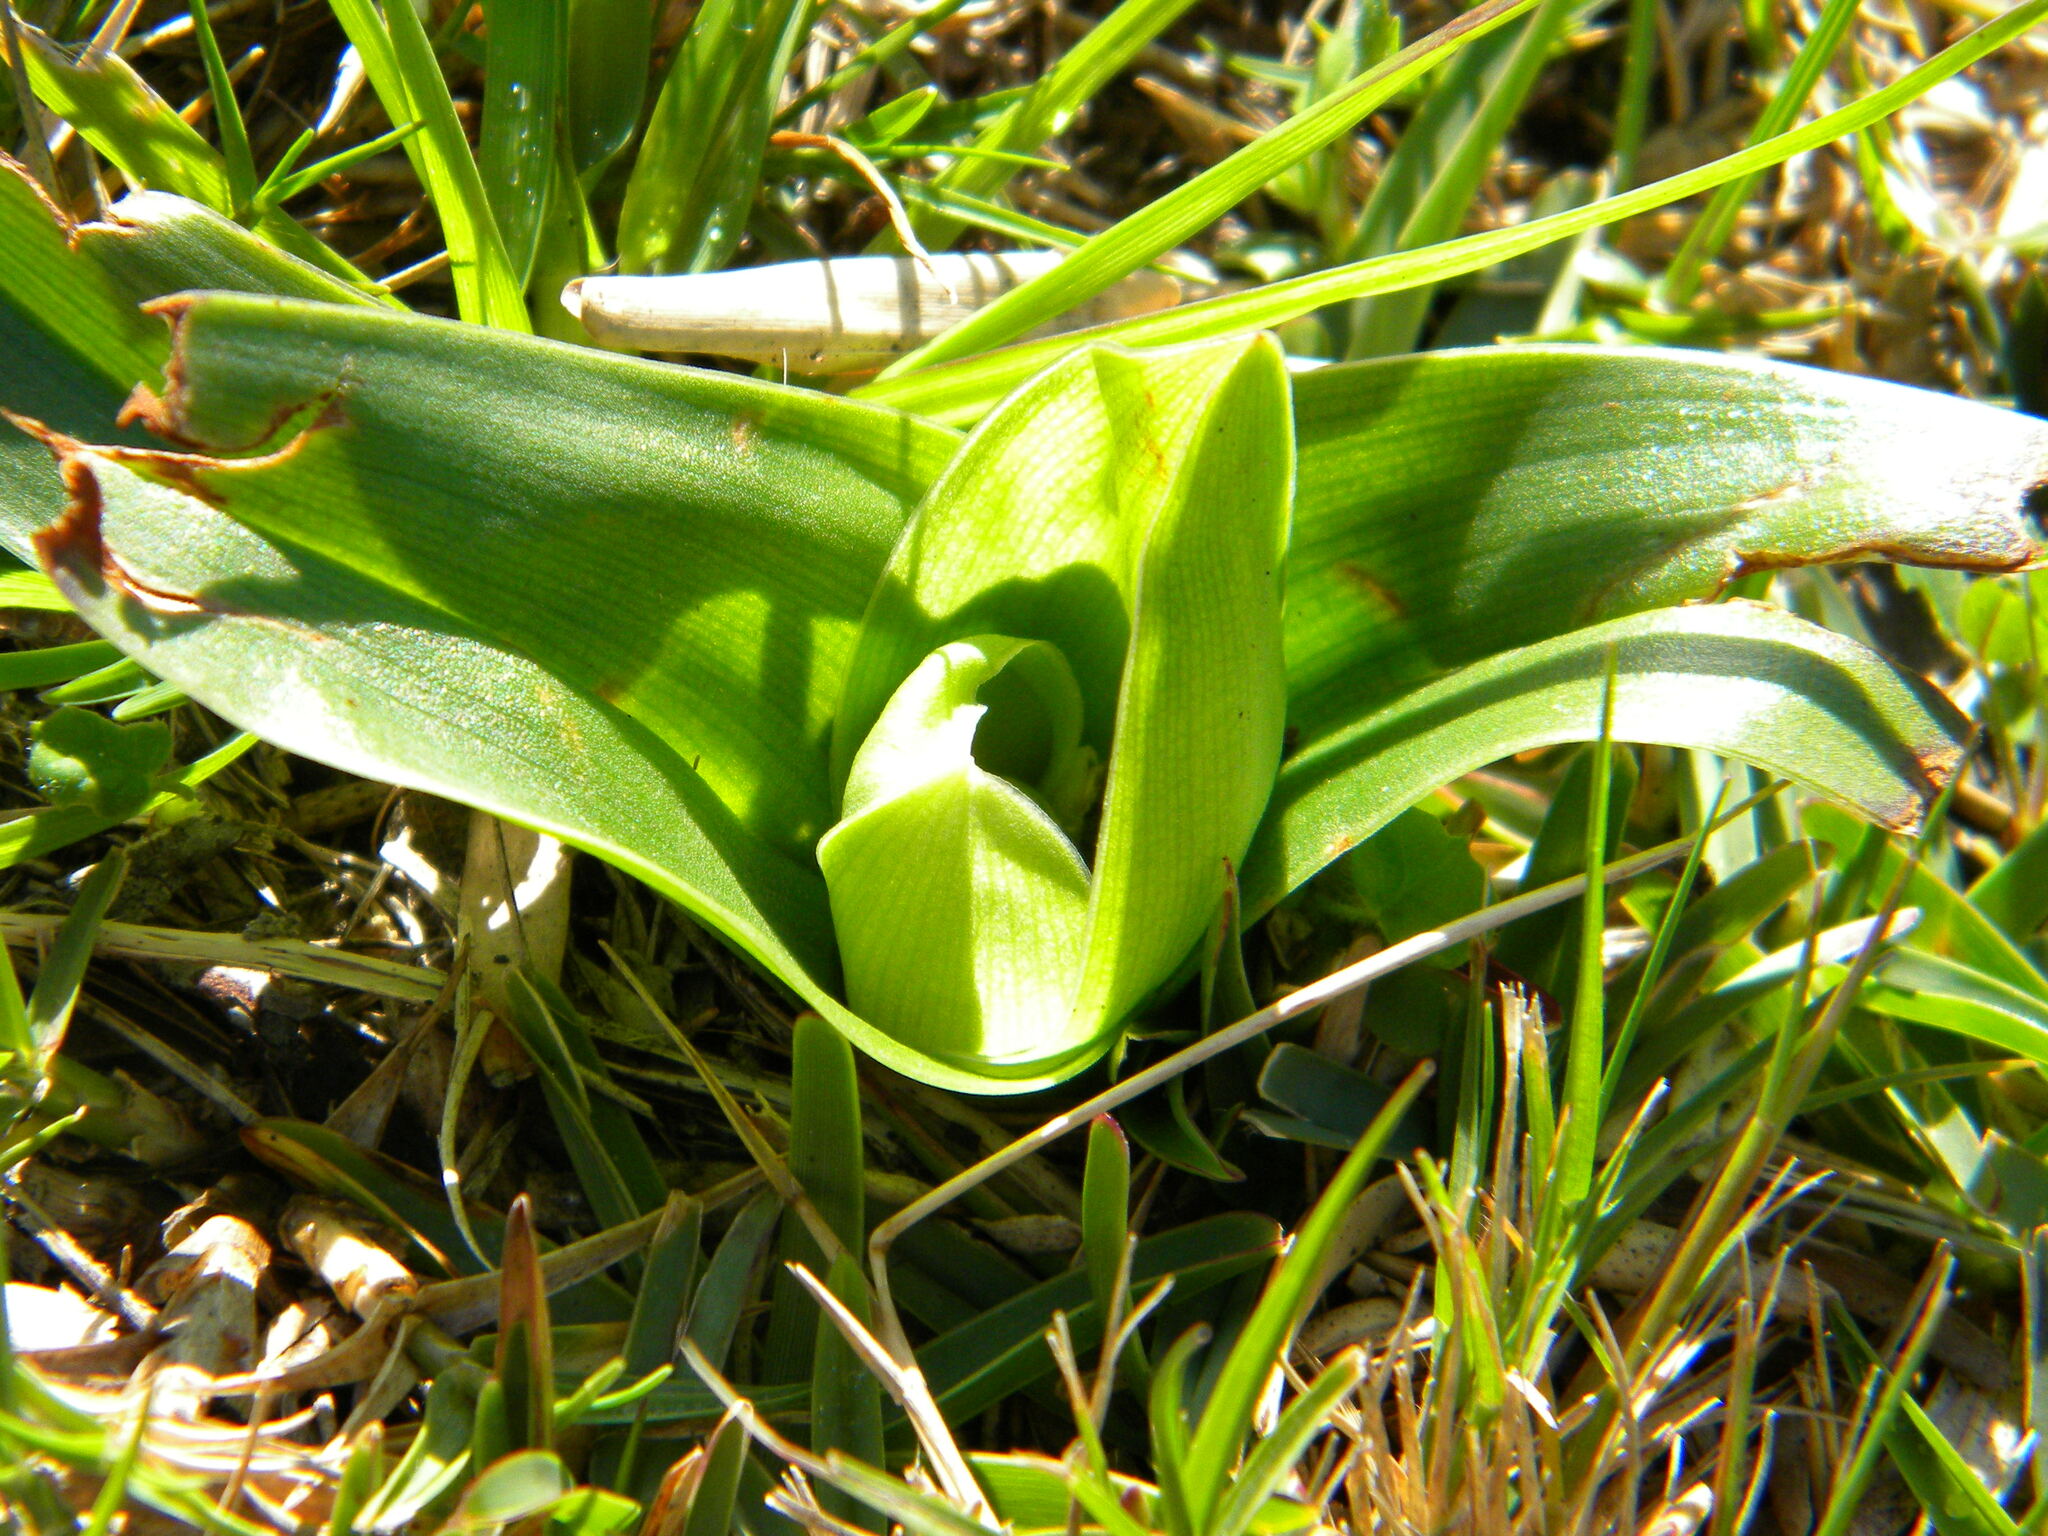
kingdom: Plantae
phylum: Tracheophyta
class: Liliopsida
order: Liliales
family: Colchicaceae
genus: Colchicum
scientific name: Colchicum eucomoides
